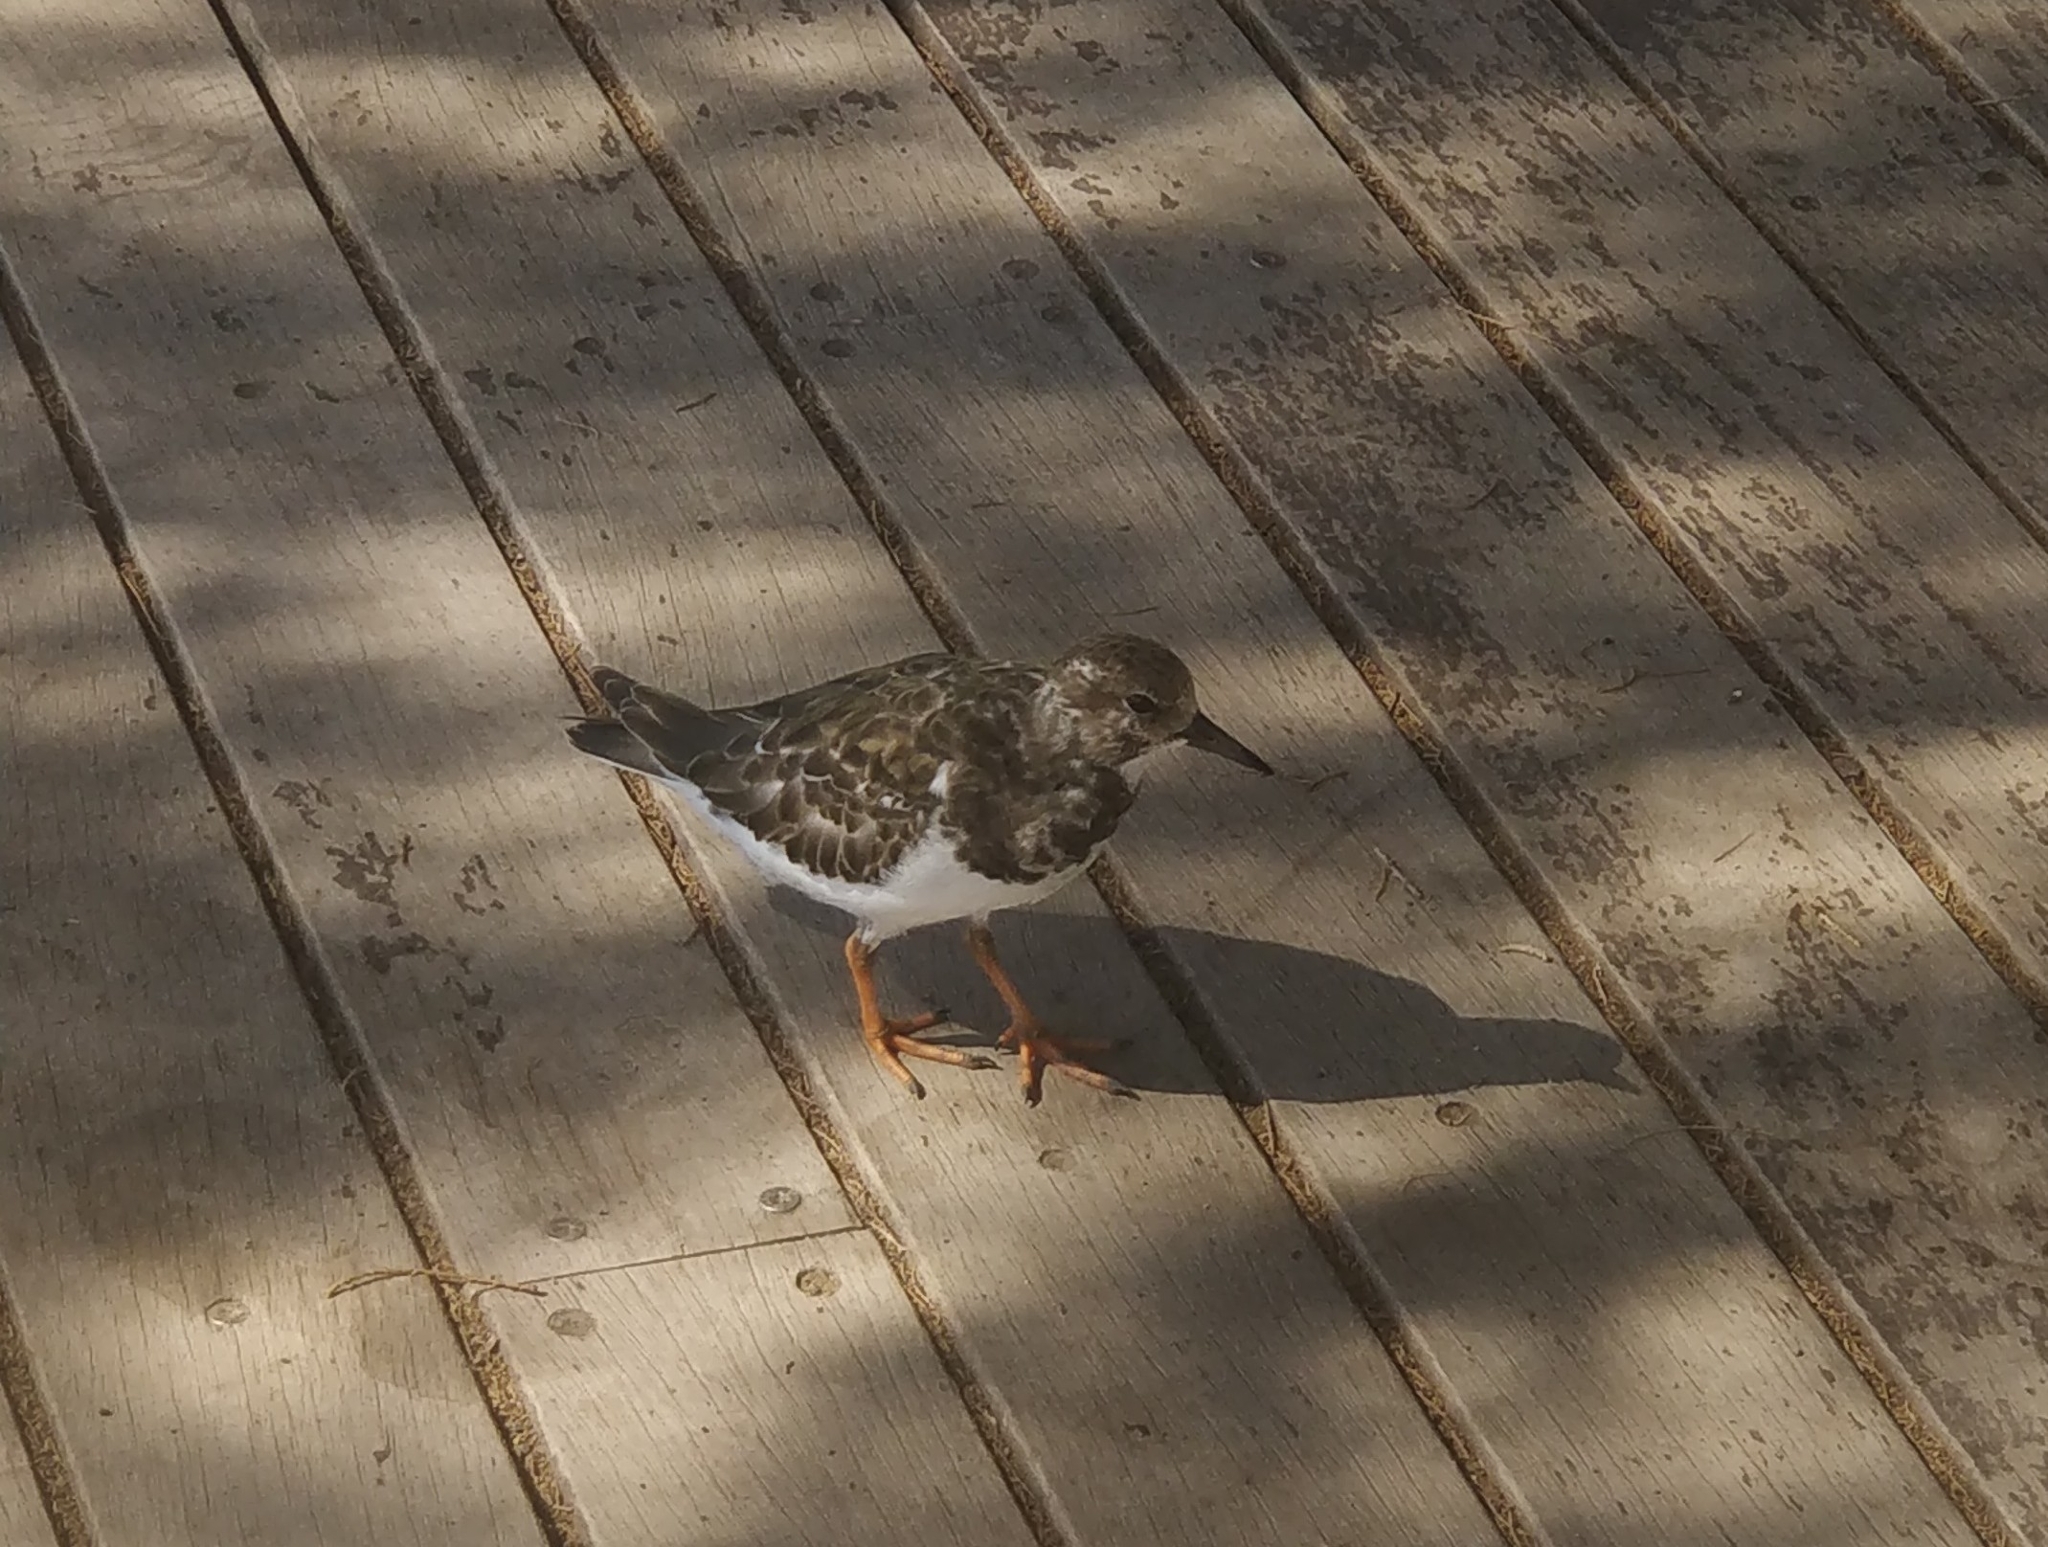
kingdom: Animalia
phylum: Chordata
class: Aves
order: Charadriiformes
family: Scolopacidae
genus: Arenaria
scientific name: Arenaria interpres
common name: Ruddy turnstone
